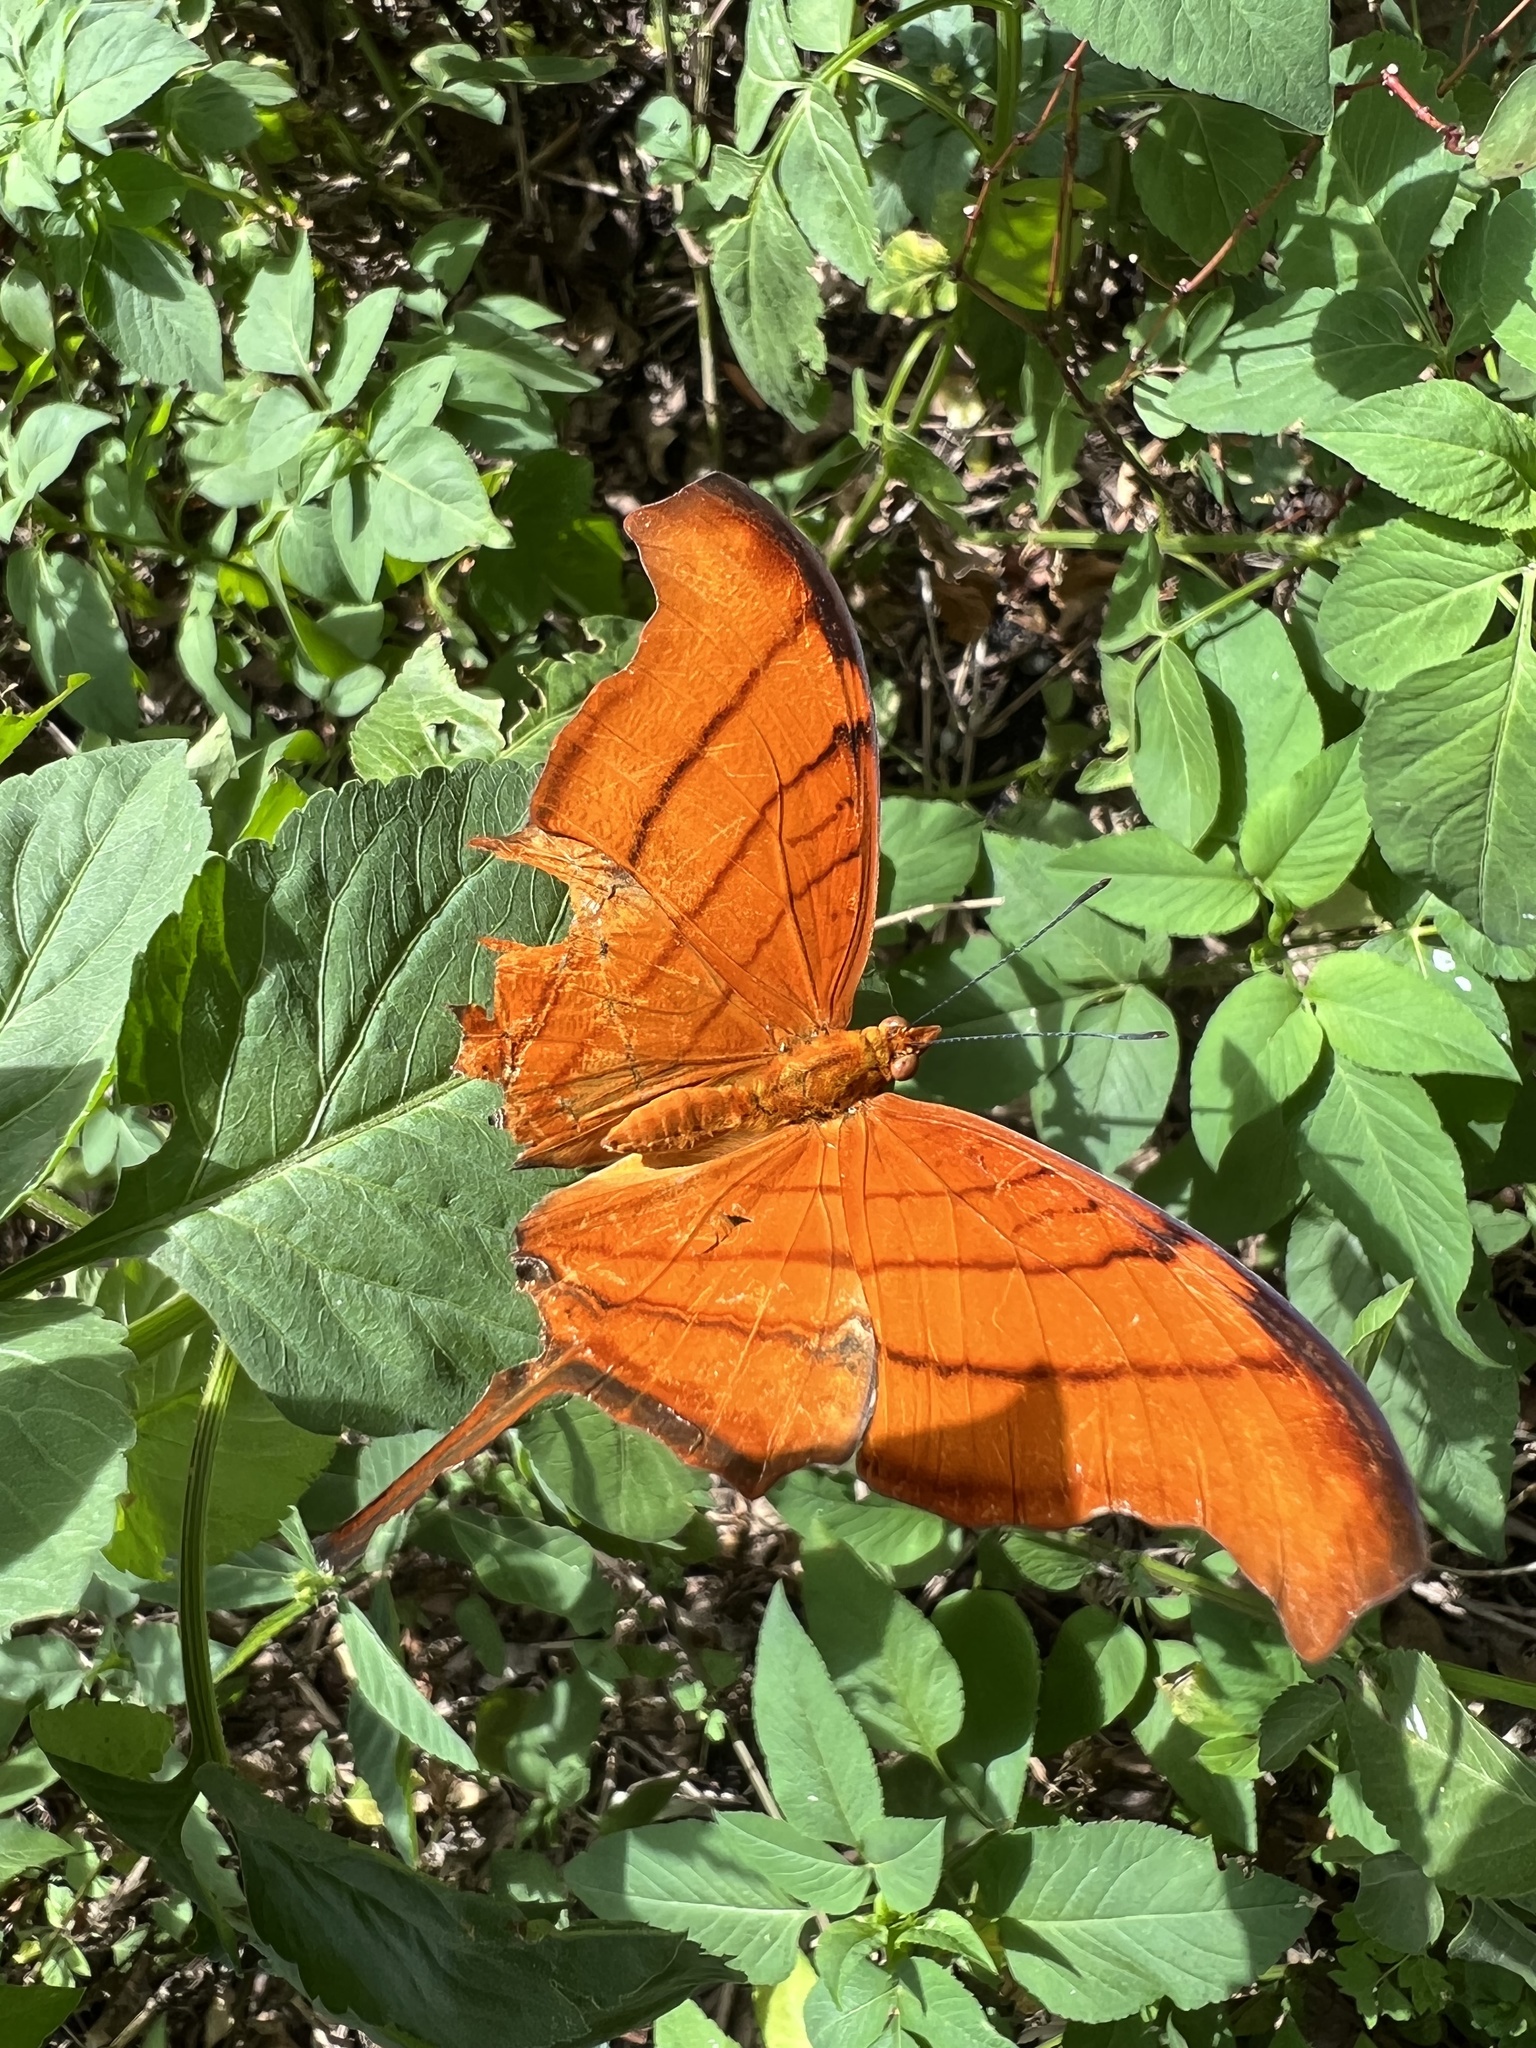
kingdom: Animalia
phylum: Arthropoda
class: Insecta
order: Lepidoptera
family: Nymphalidae
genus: Marpesia
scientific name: Marpesia petreus
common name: Red dagger wing
